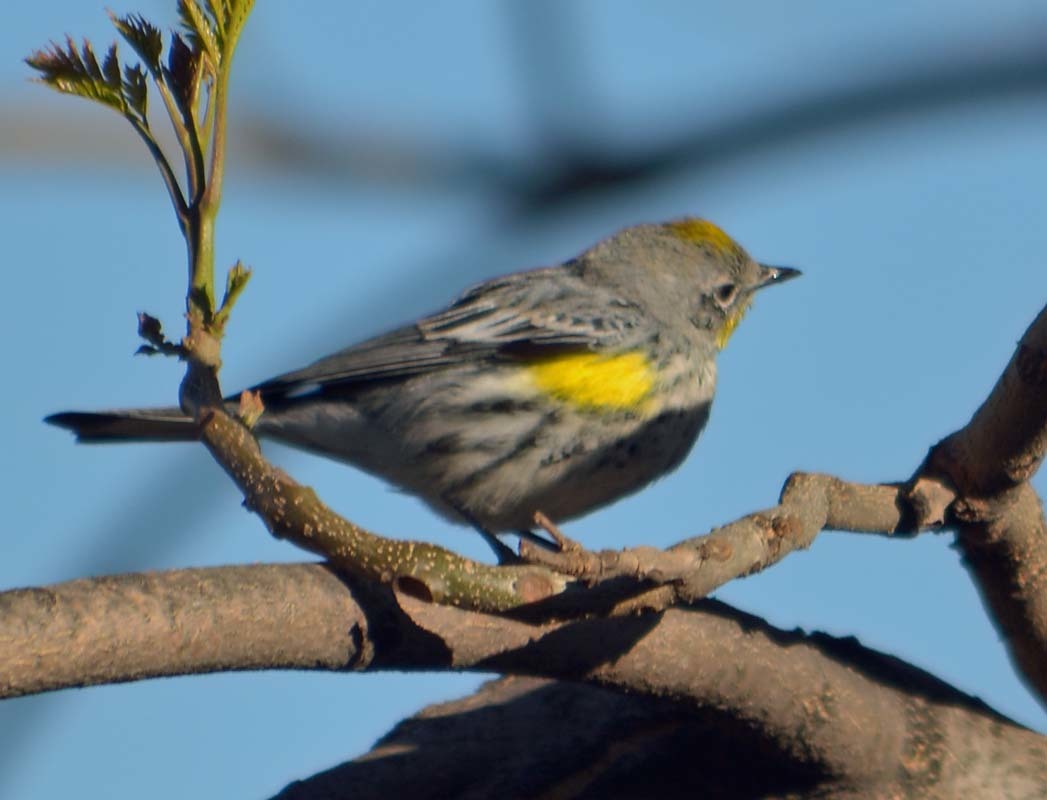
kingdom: Animalia
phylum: Chordata
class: Aves
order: Passeriformes
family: Parulidae
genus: Setophaga
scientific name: Setophaga coronata
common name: Myrtle warbler
